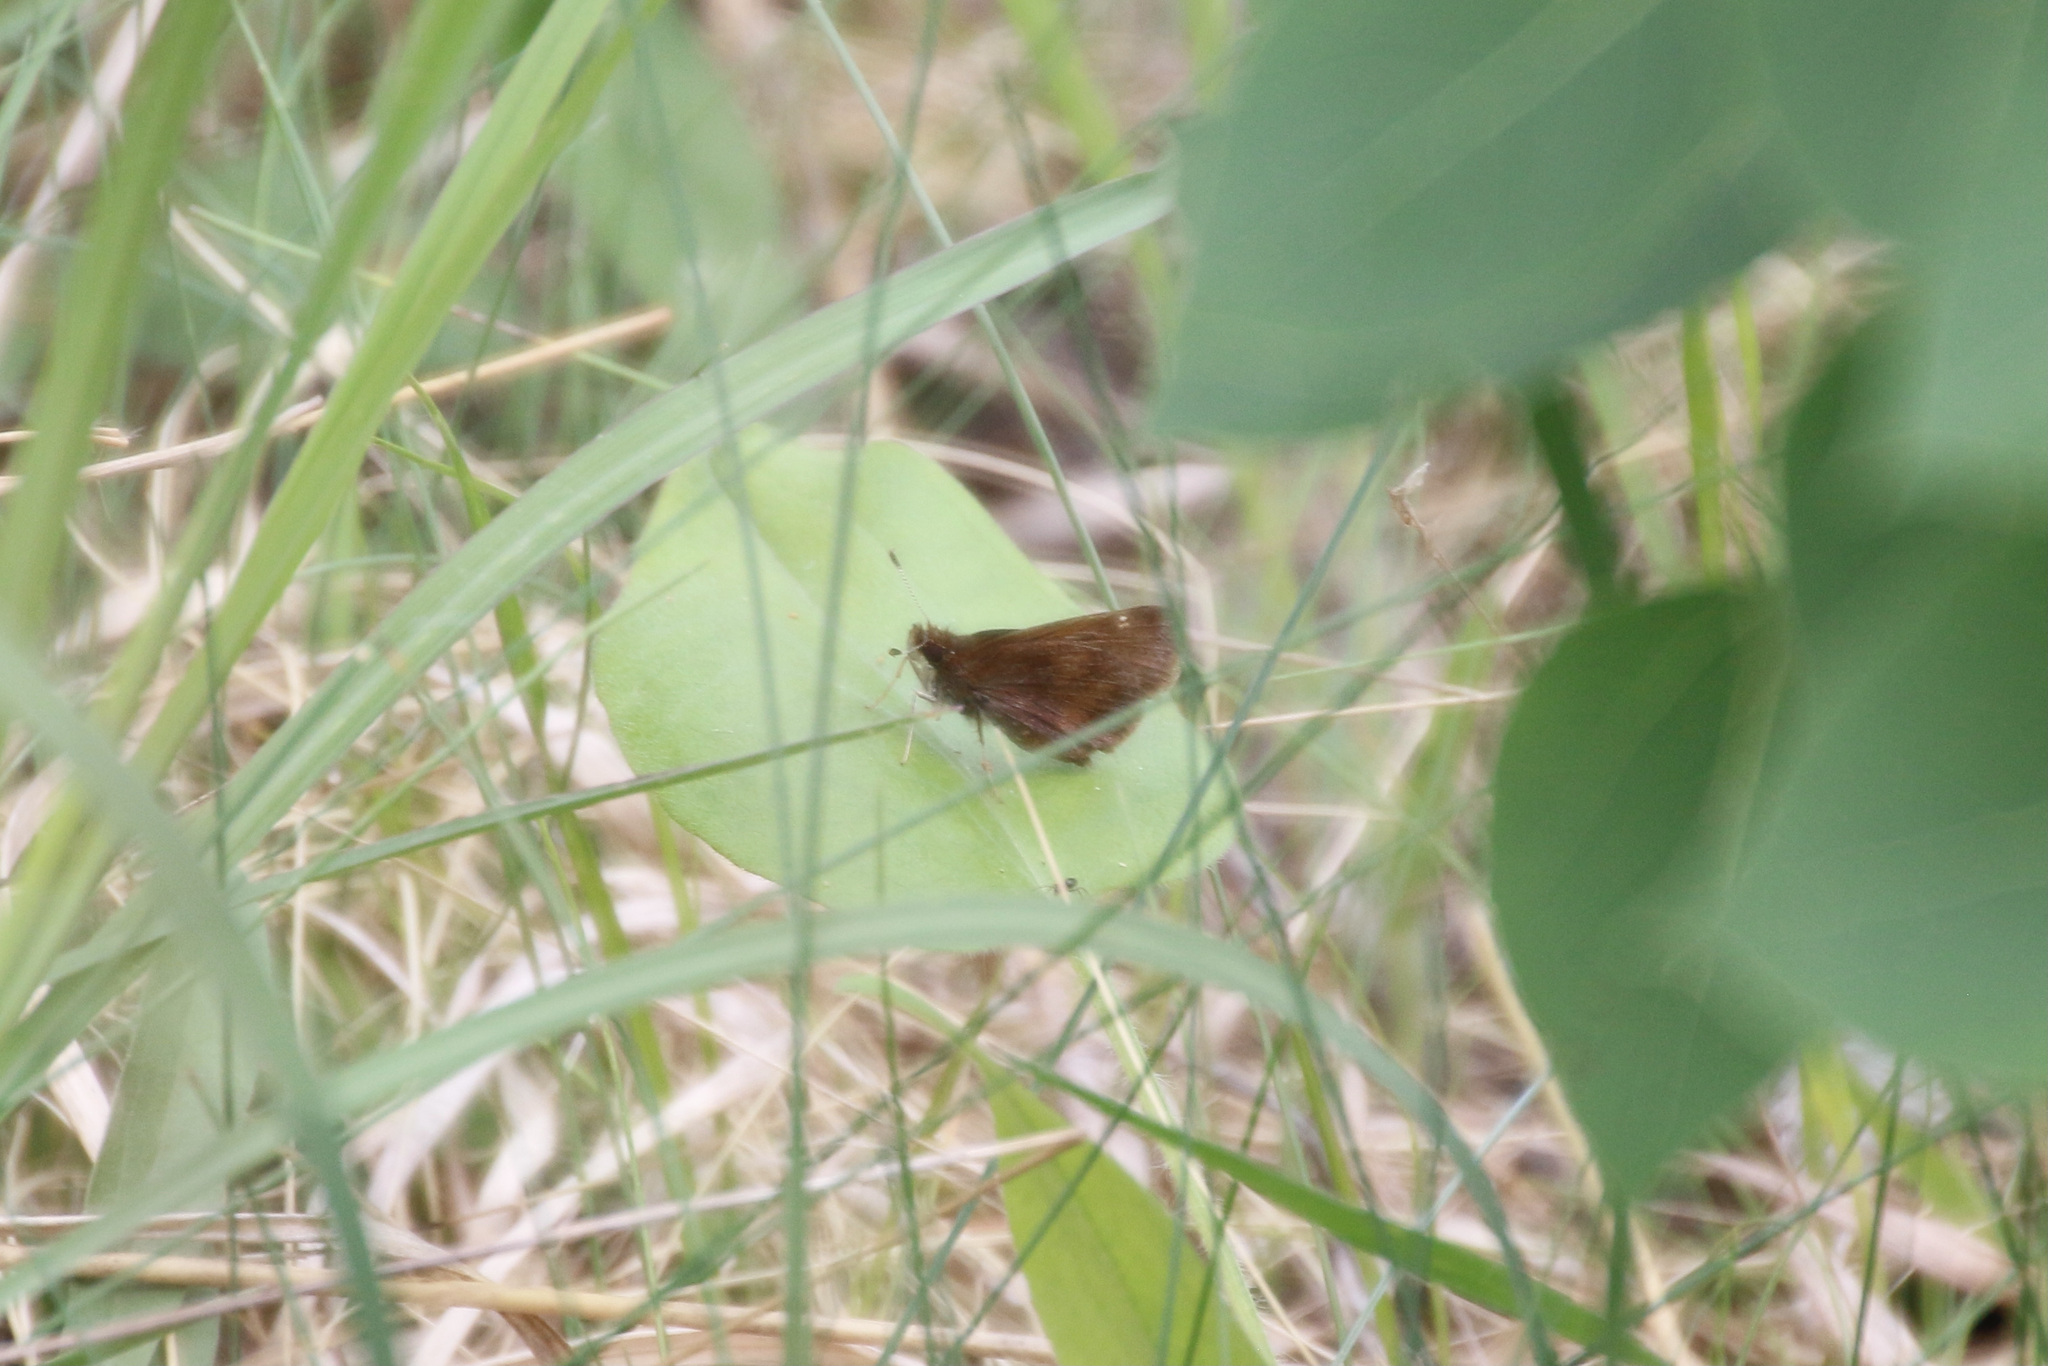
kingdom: Animalia
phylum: Arthropoda
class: Insecta
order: Lepidoptera
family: Hesperiidae
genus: Lon
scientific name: Lon hobomok
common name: Hobomok skipper
